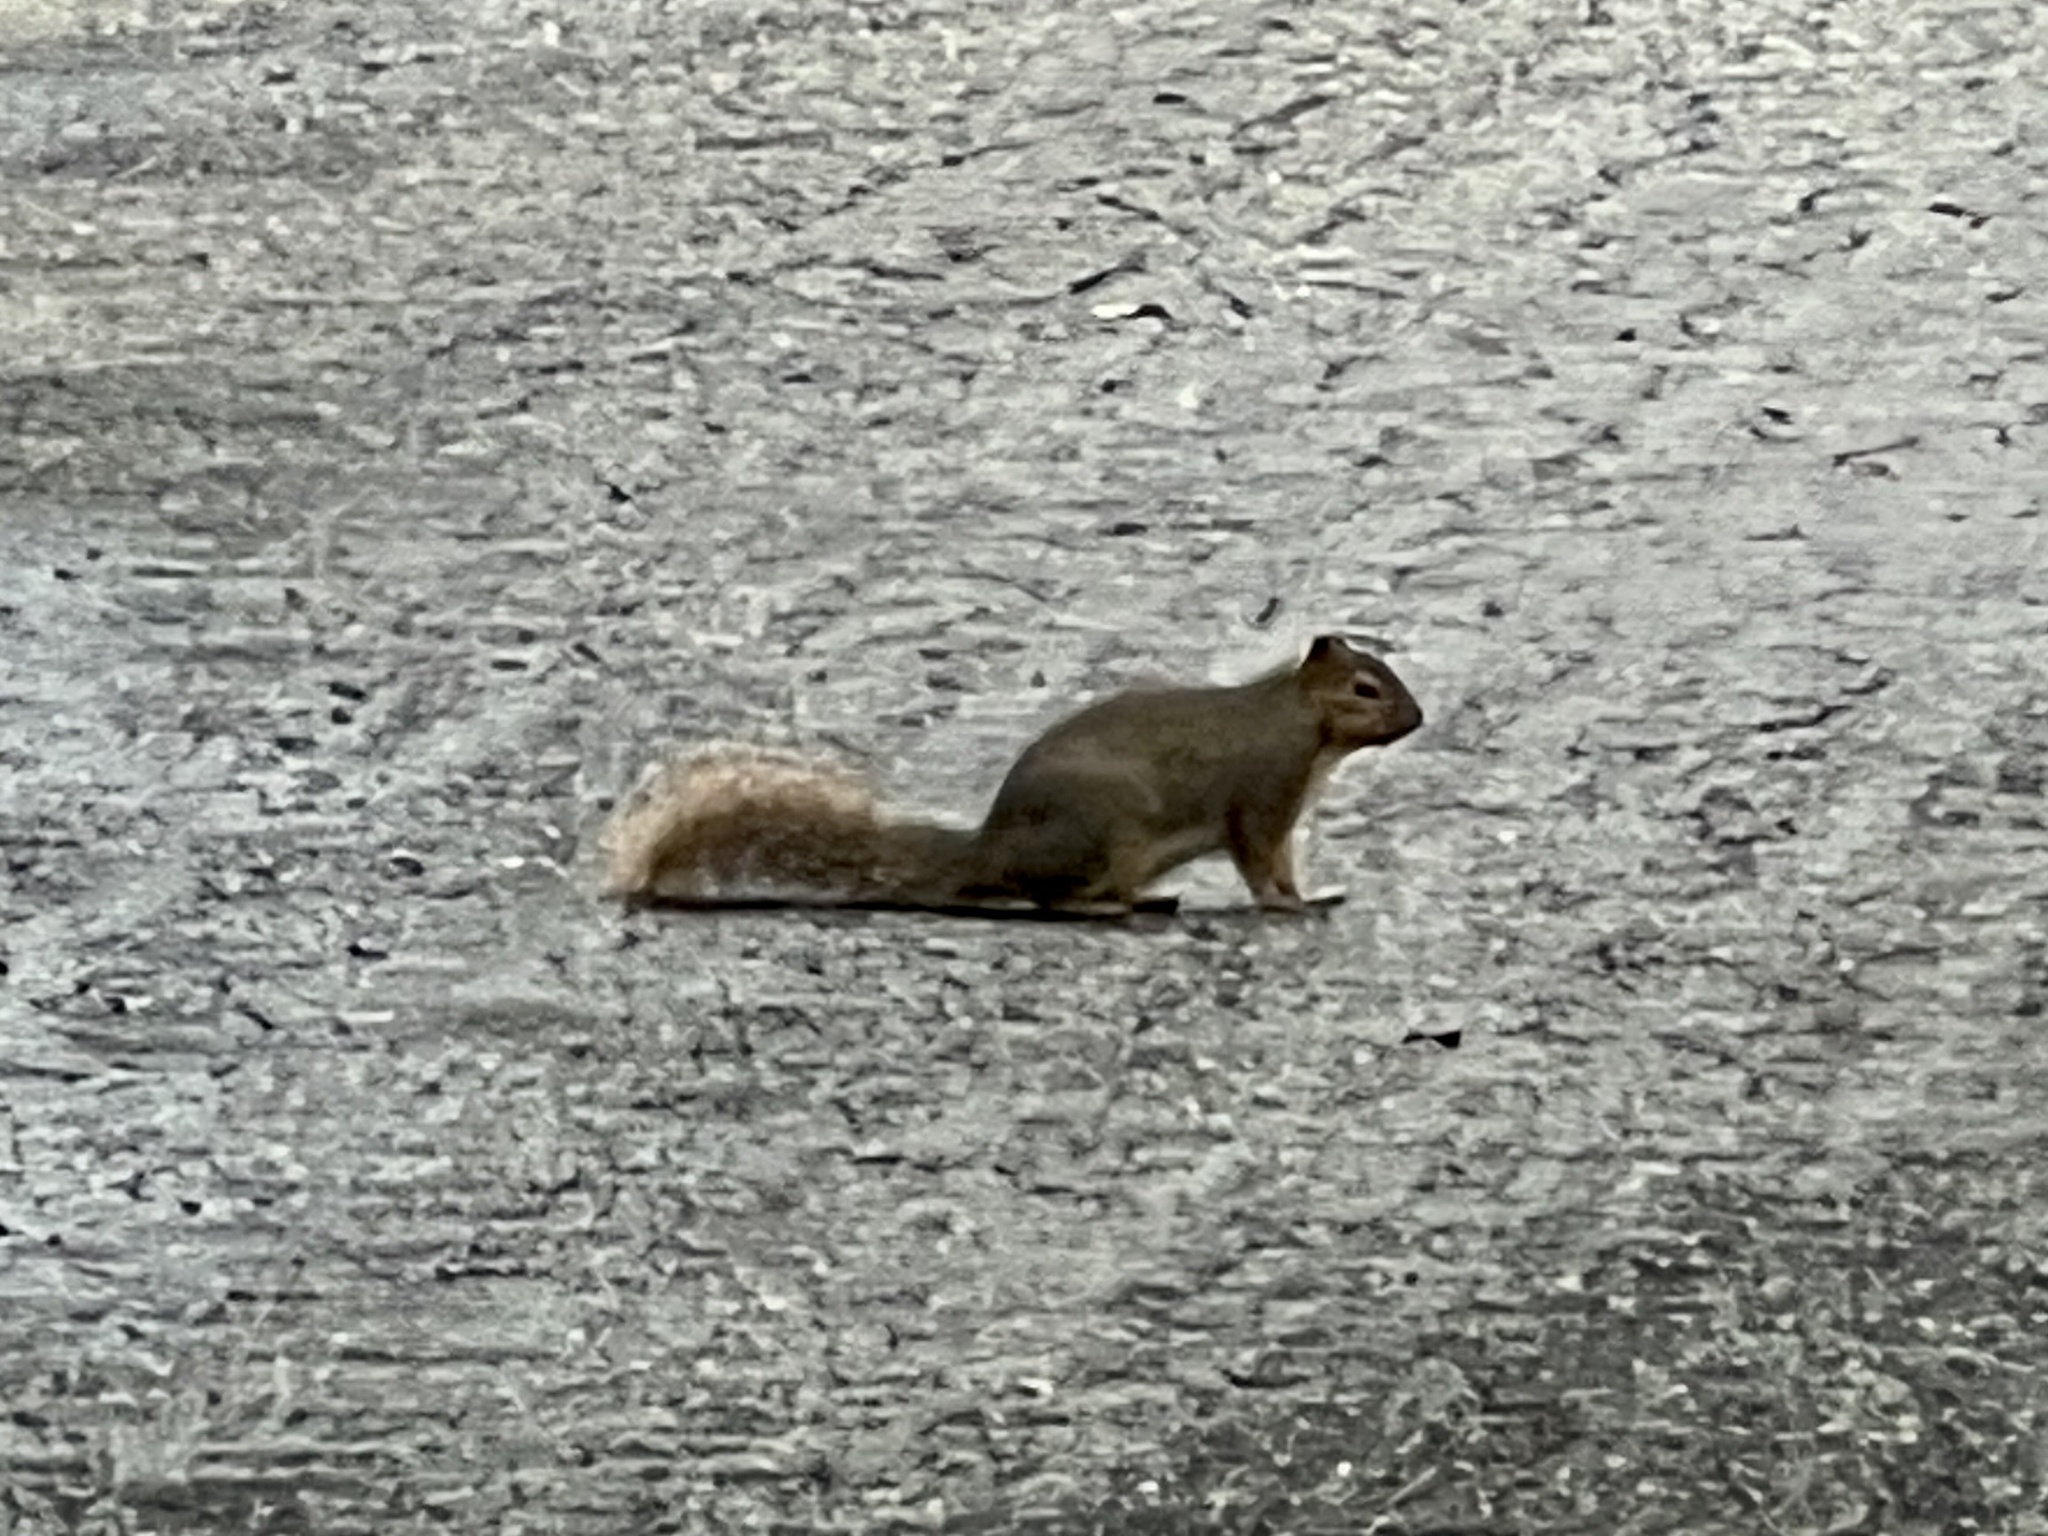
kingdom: Animalia
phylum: Chordata
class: Mammalia
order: Rodentia
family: Sciuridae
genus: Sciurus
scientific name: Sciurus niger
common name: Fox squirrel
